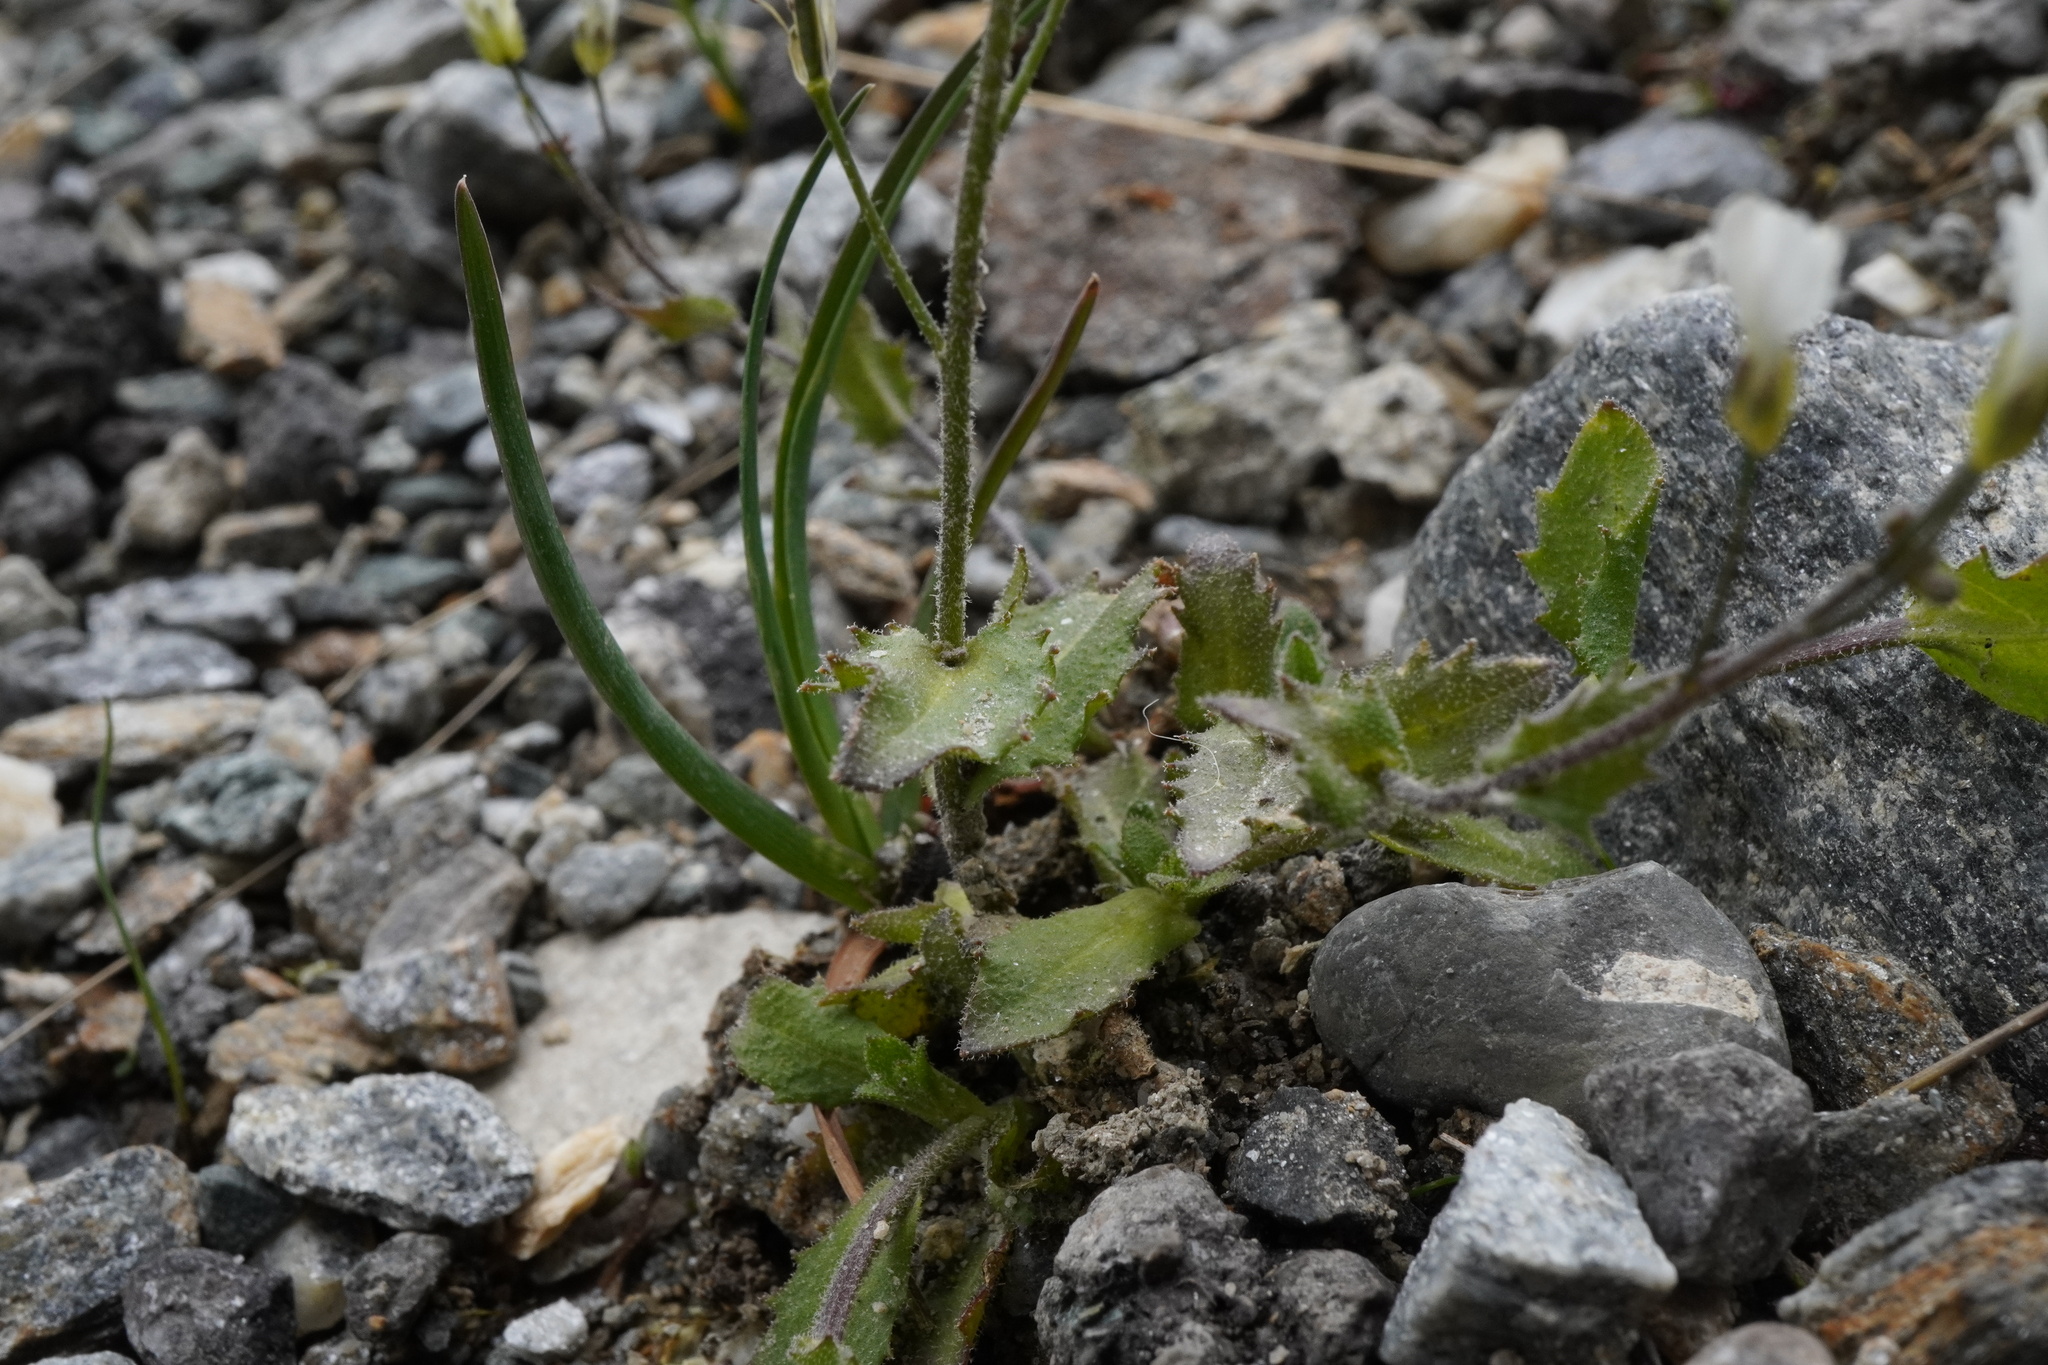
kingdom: Plantae
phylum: Tracheophyta
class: Magnoliopsida
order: Brassicales
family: Brassicaceae
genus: Arabis
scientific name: Arabis alpina
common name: Alpine rock-cress
